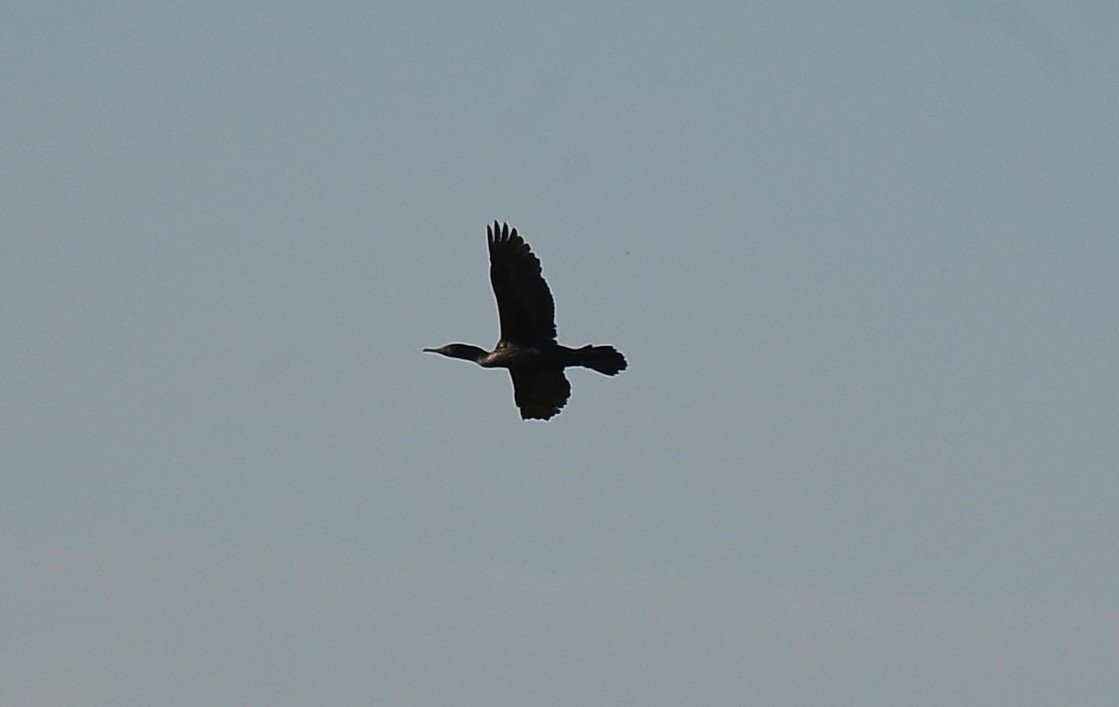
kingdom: Animalia
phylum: Chordata
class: Aves
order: Suliformes
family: Phalacrocoracidae
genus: Phalacrocorax
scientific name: Phalacrocorax fuscicollis
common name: Indian cormorant
